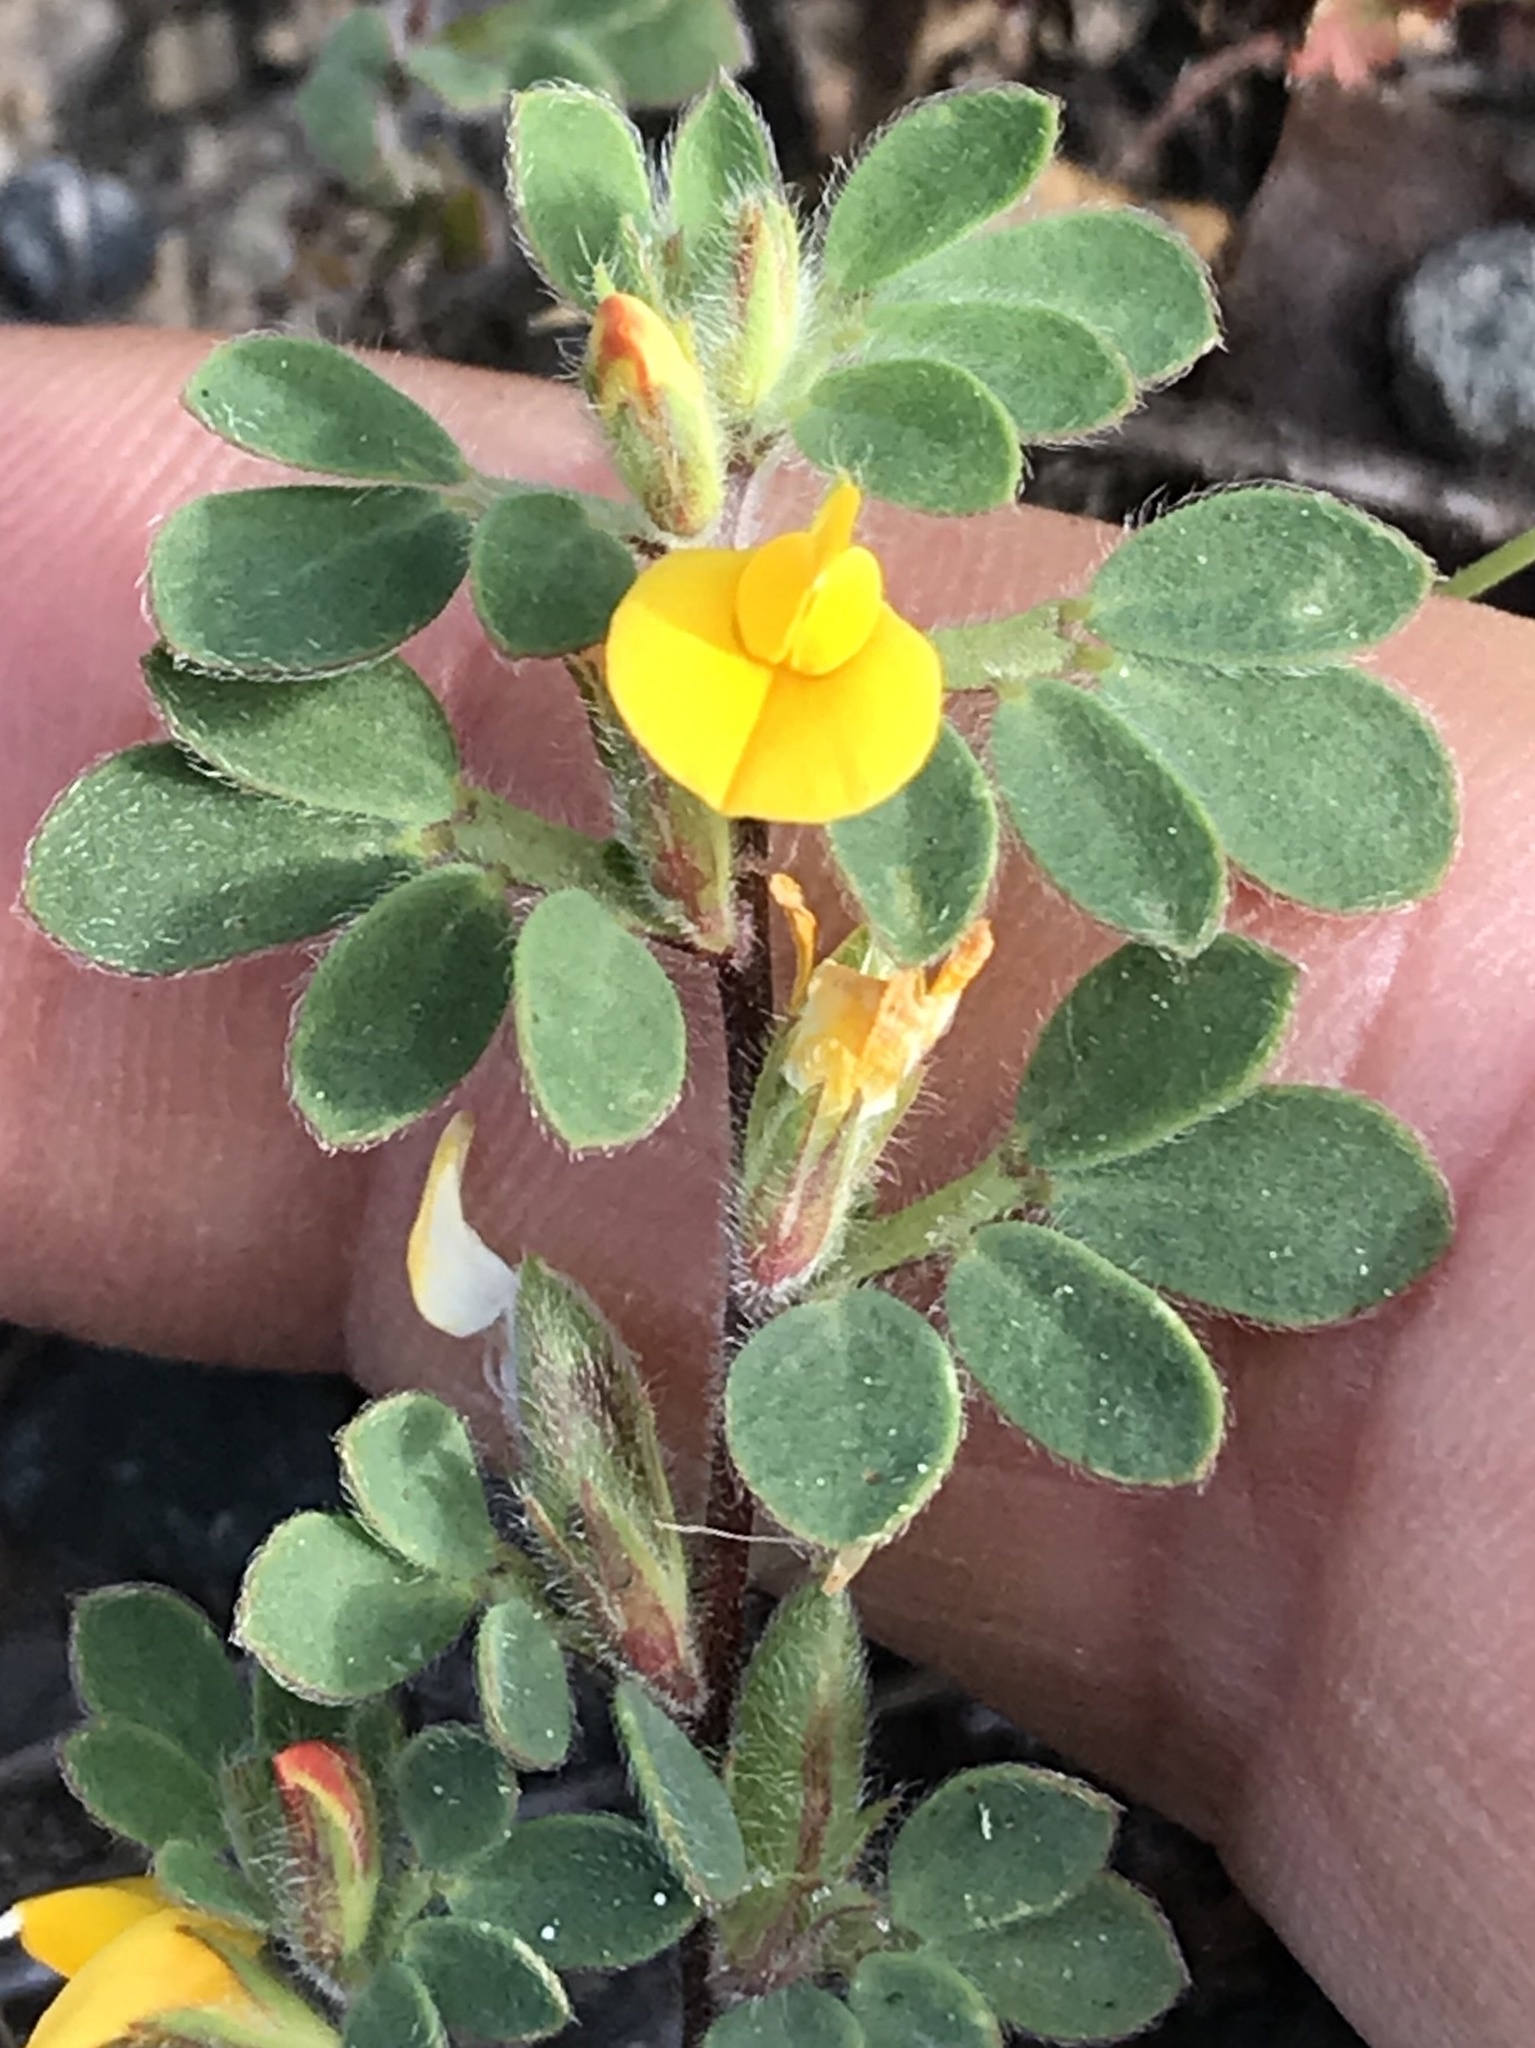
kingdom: Plantae
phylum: Tracheophyta
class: Magnoliopsida
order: Fabales
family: Fabaceae
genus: Acmispon
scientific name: Acmispon brachycarpus
